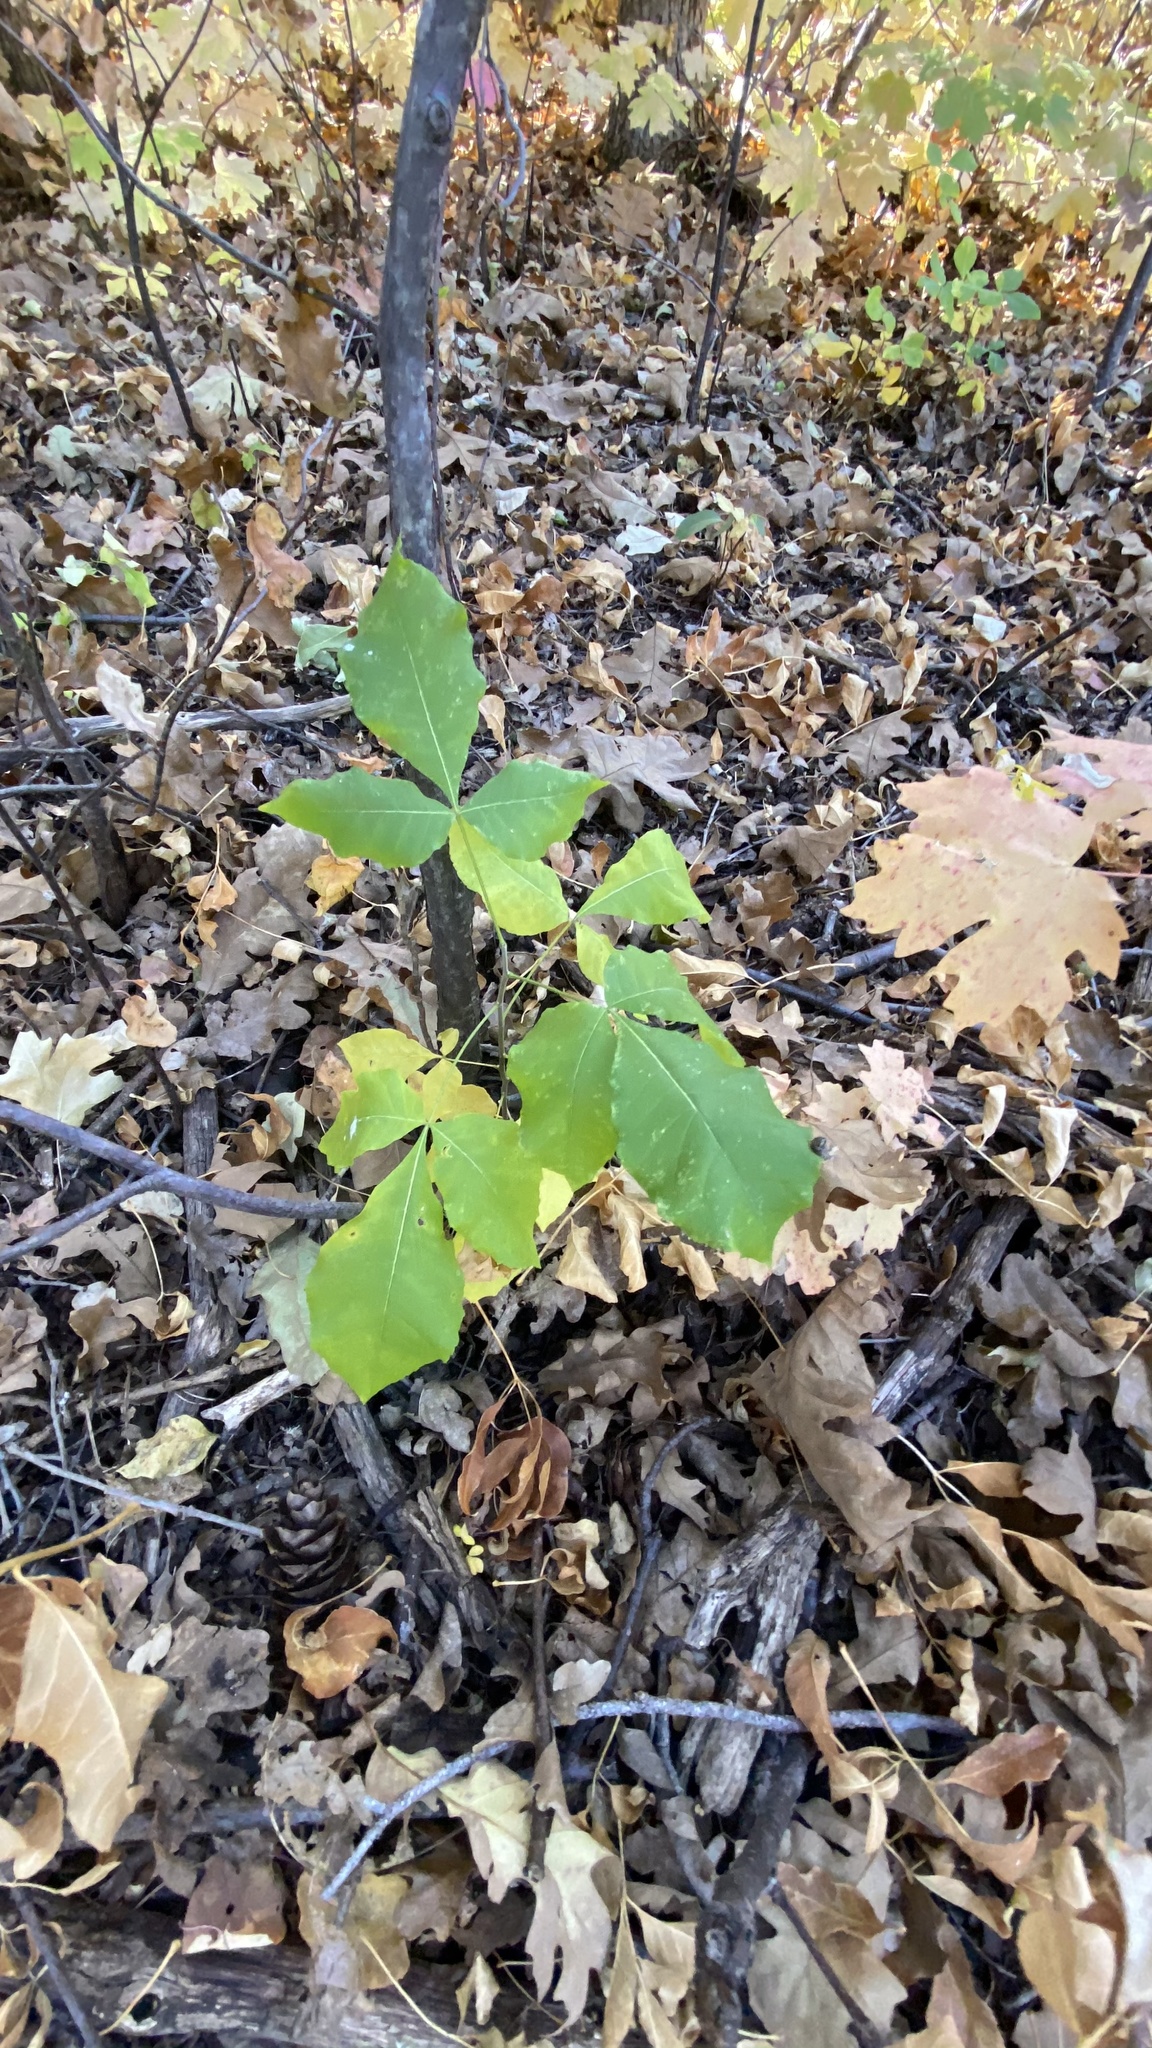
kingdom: Plantae
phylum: Tracheophyta
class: Magnoliopsida
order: Sapindales
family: Anacardiaceae
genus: Toxicodendron
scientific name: Toxicodendron rydbergii
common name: Rydberg's poison-ivy
